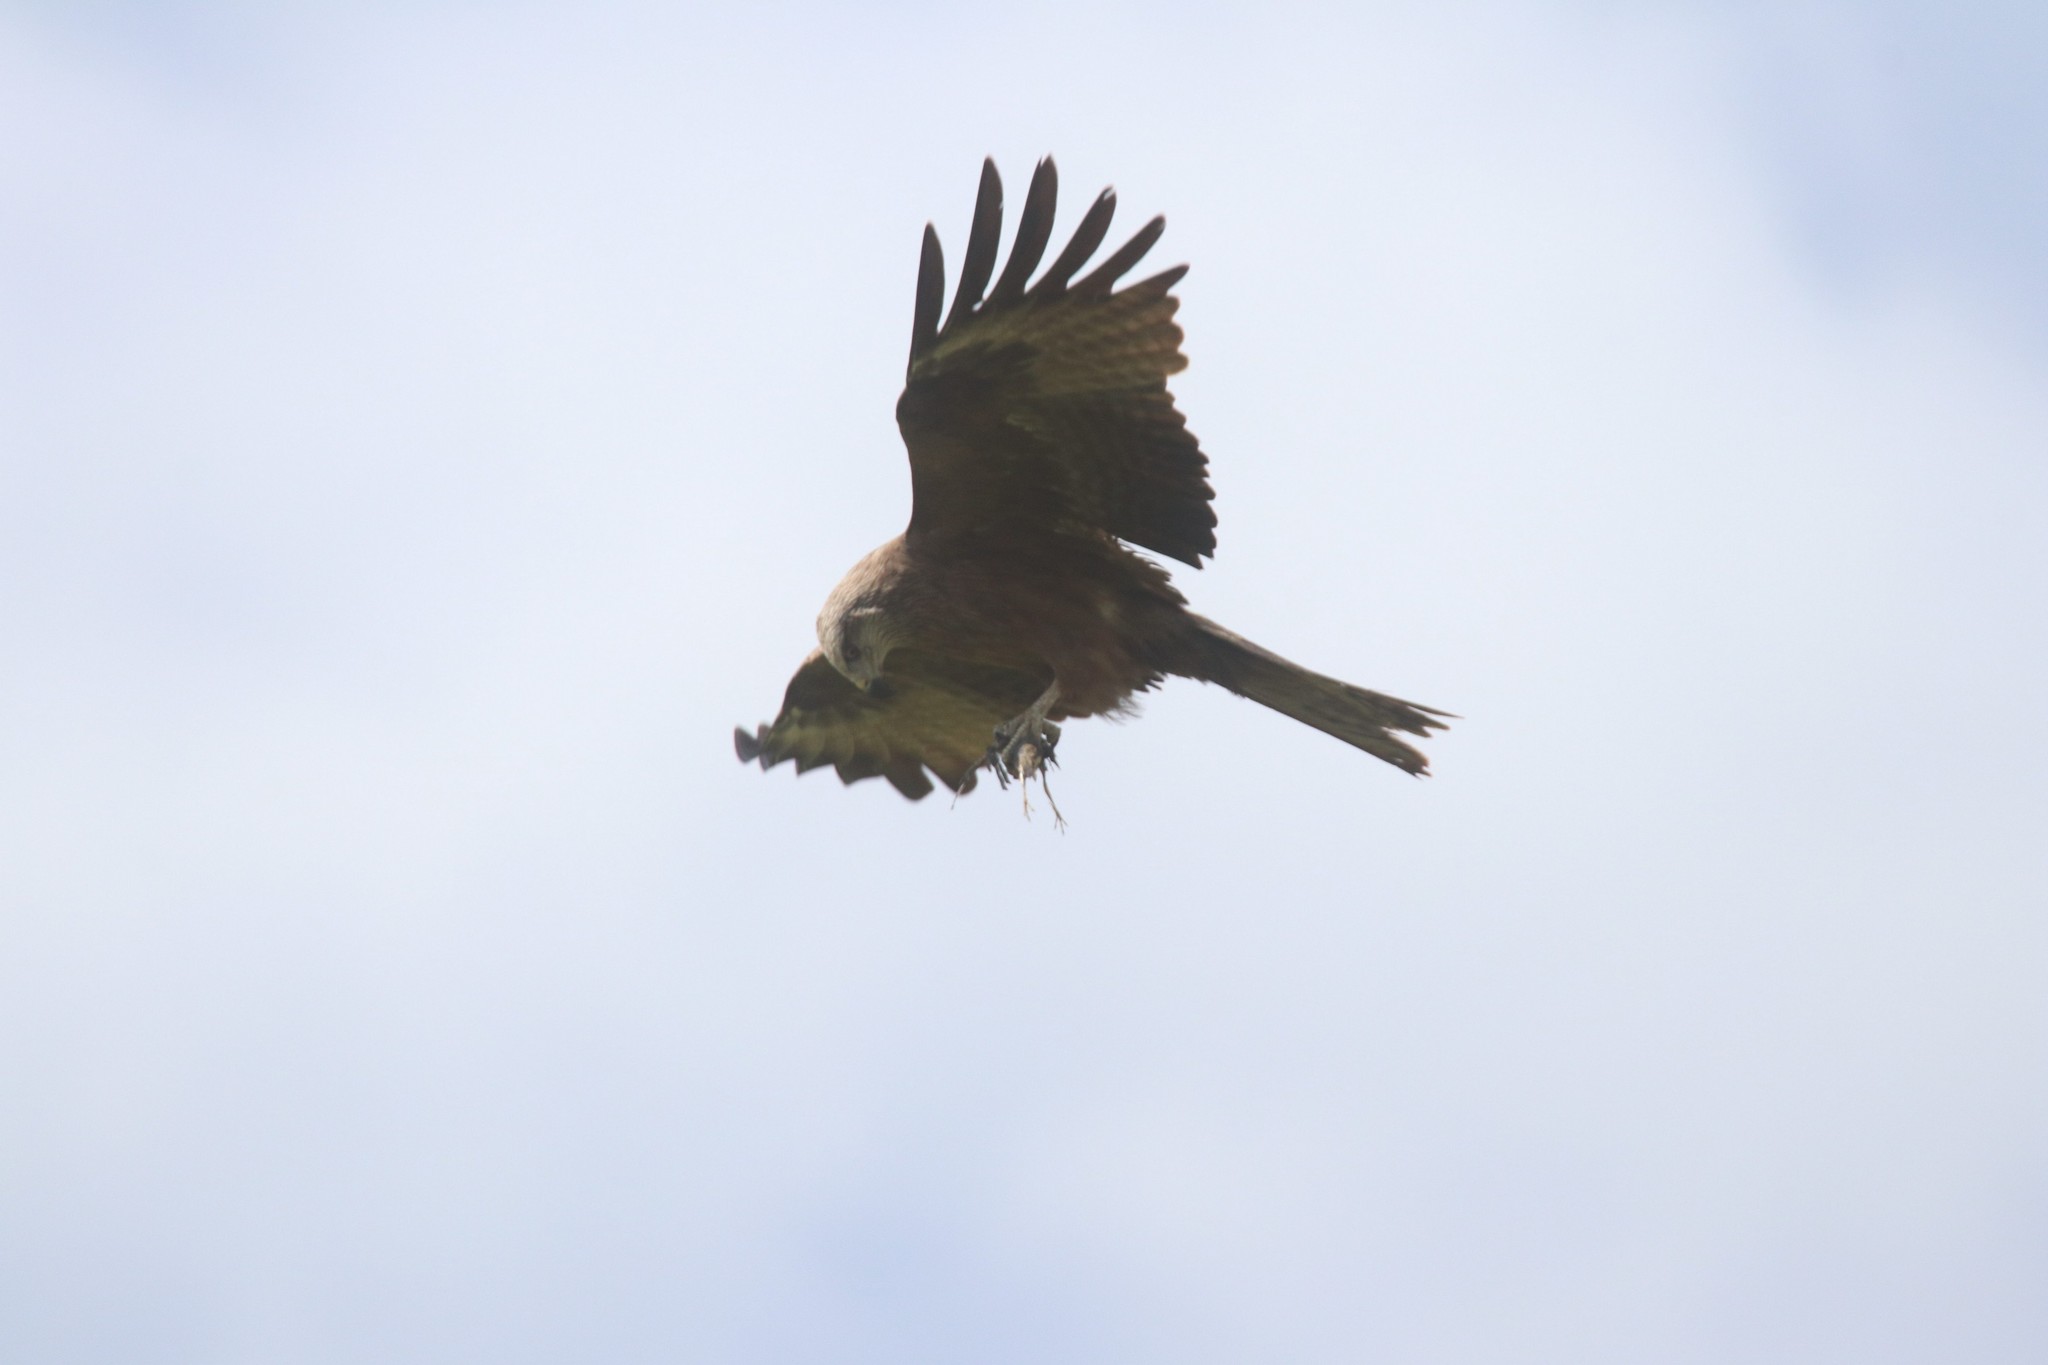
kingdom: Animalia
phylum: Chordata
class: Aves
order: Accipitriformes
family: Accipitridae
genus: Milvus
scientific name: Milvus migrans
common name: Black kite
